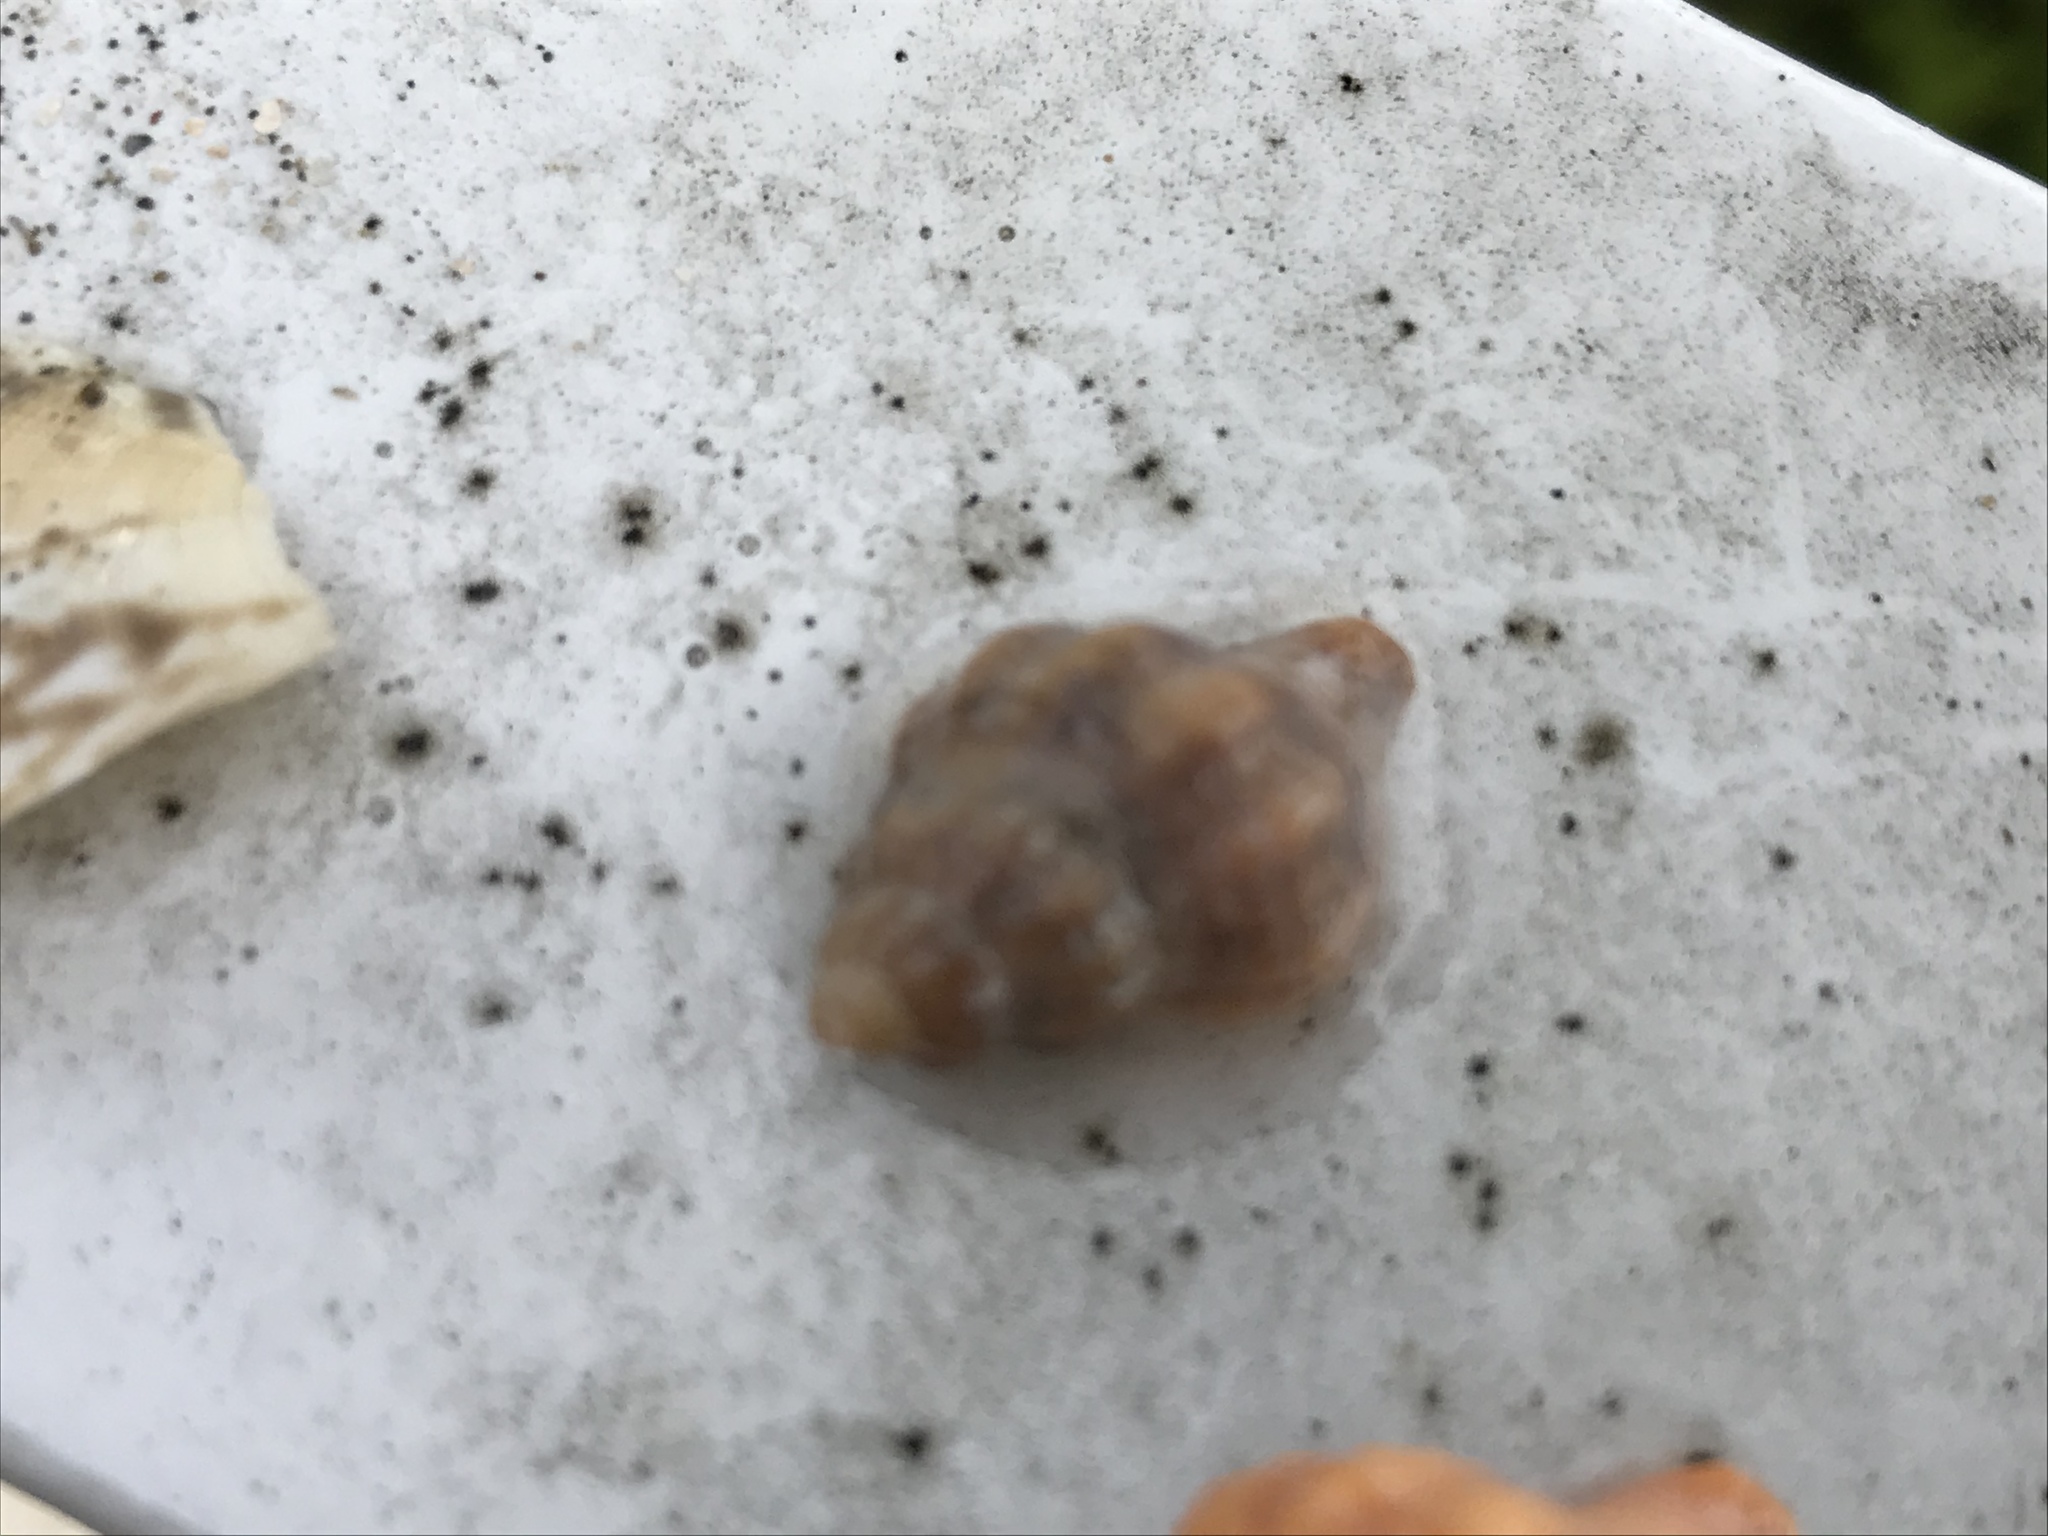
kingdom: Animalia
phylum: Mollusca
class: Gastropoda
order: Neogastropoda
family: Muricidae
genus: Urosalpinx
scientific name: Urosalpinx cinerea
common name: American sting winkle
